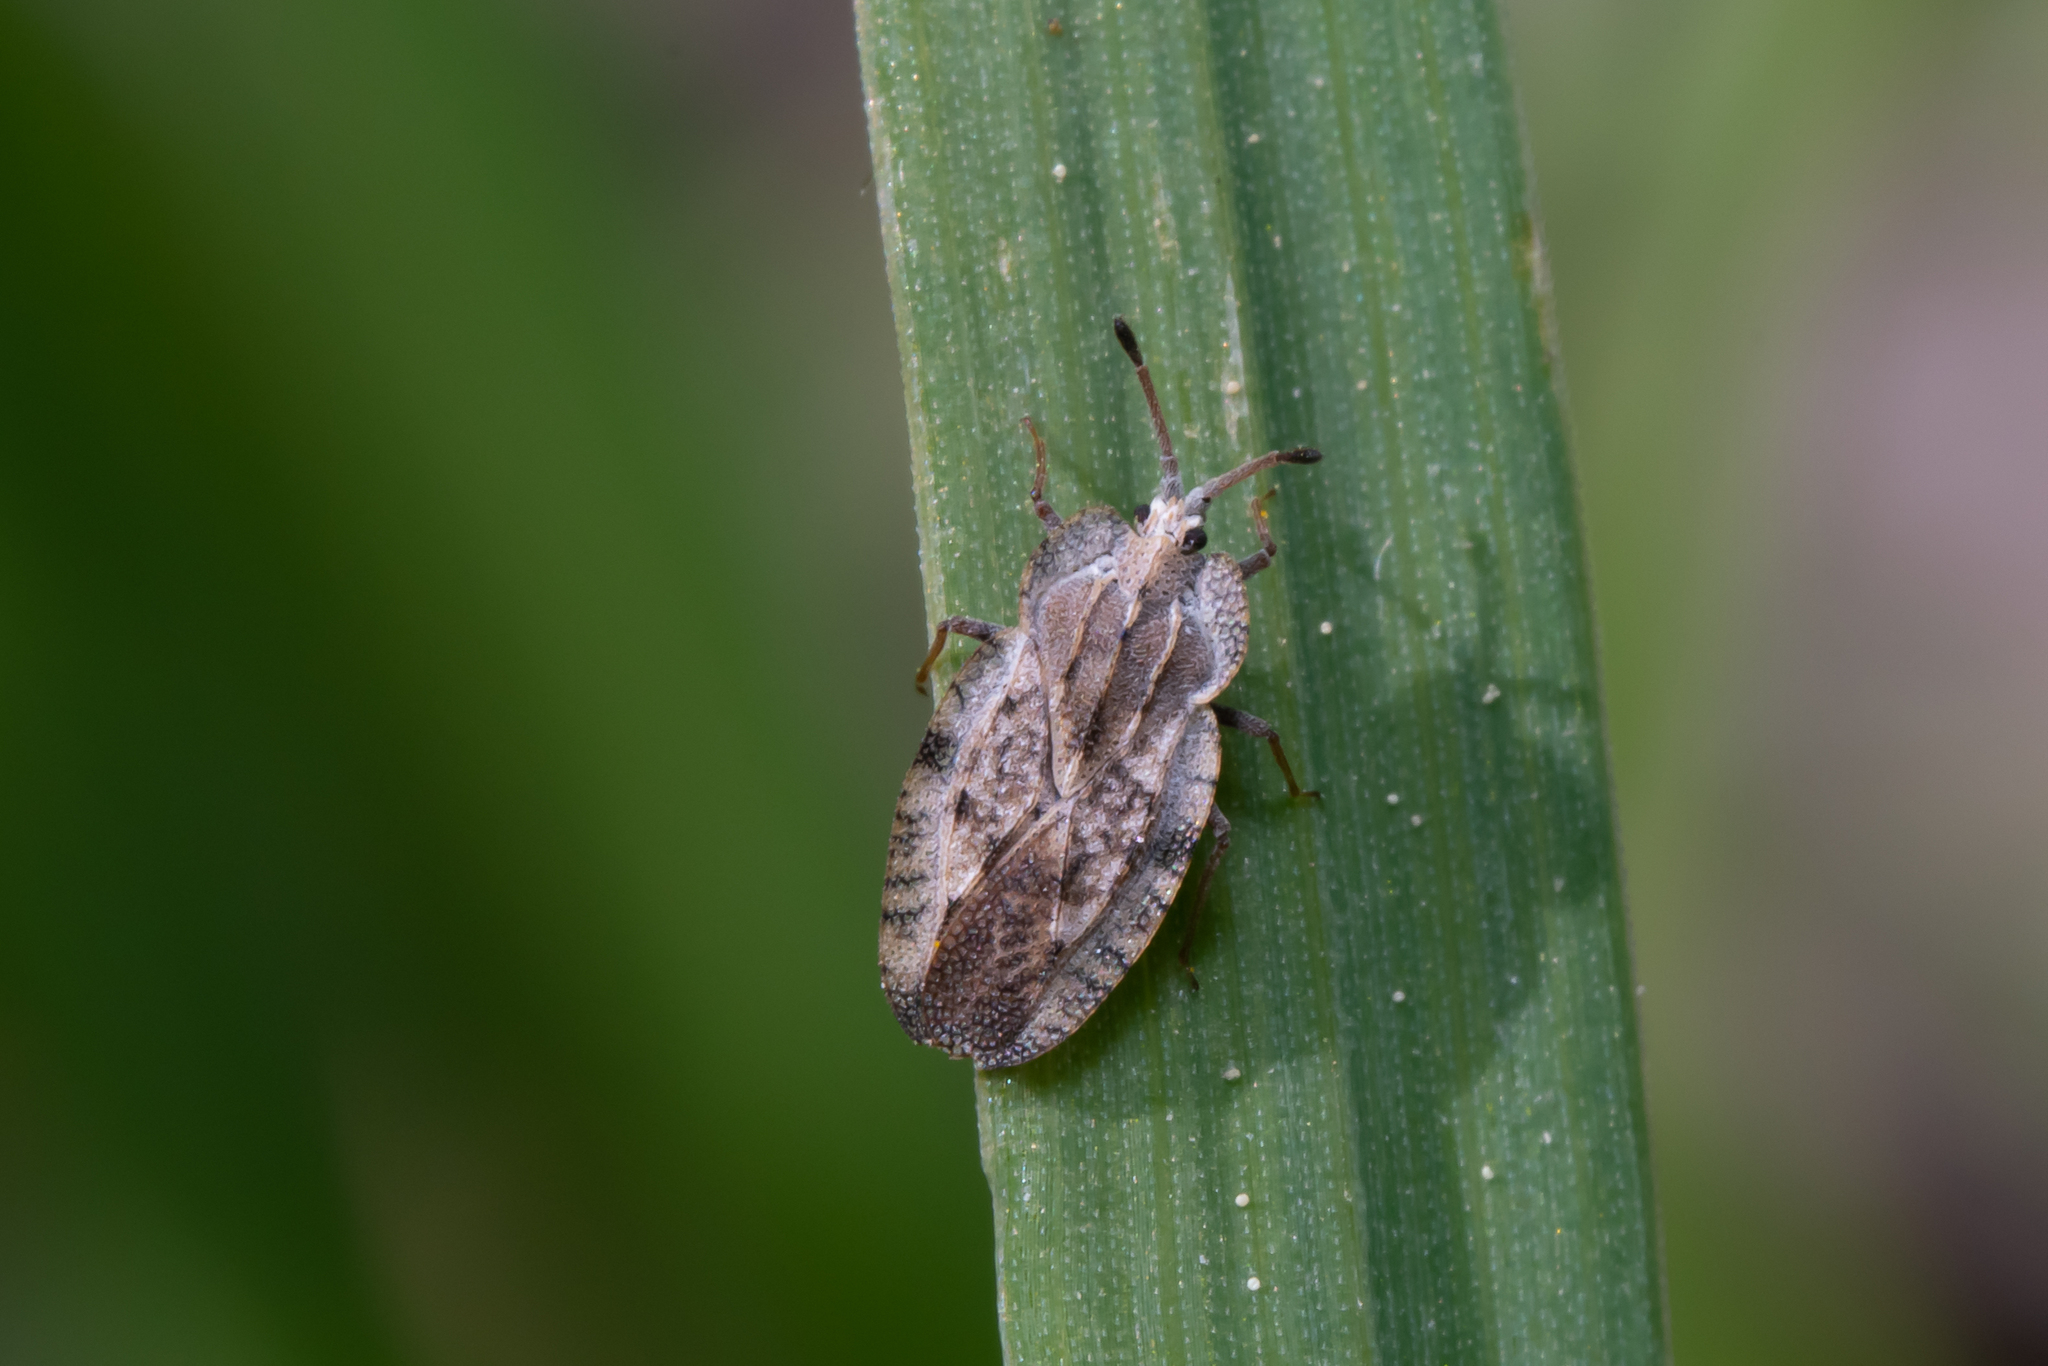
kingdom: Animalia
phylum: Arthropoda
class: Insecta
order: Hemiptera
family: Tingidae
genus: Tingis
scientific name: Tingis ampliata
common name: Creeping thistle lacebug
